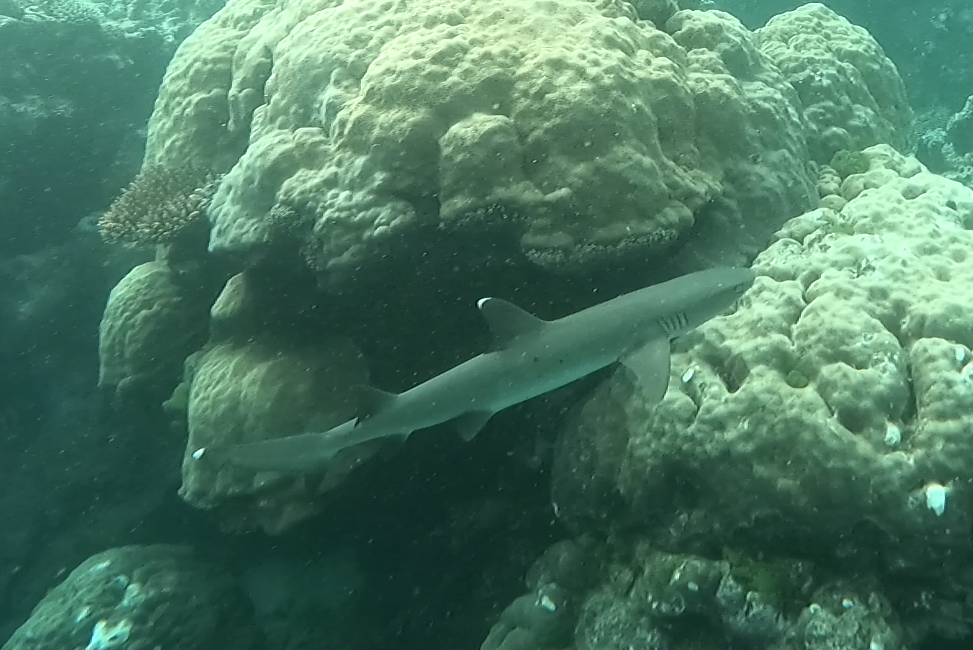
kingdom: Animalia
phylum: Chordata
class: Elasmobranchii
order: Carcharhiniformes
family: Carcharhinidae
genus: Triaenodon
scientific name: Triaenodon obesus
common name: Whitetip reef shark
